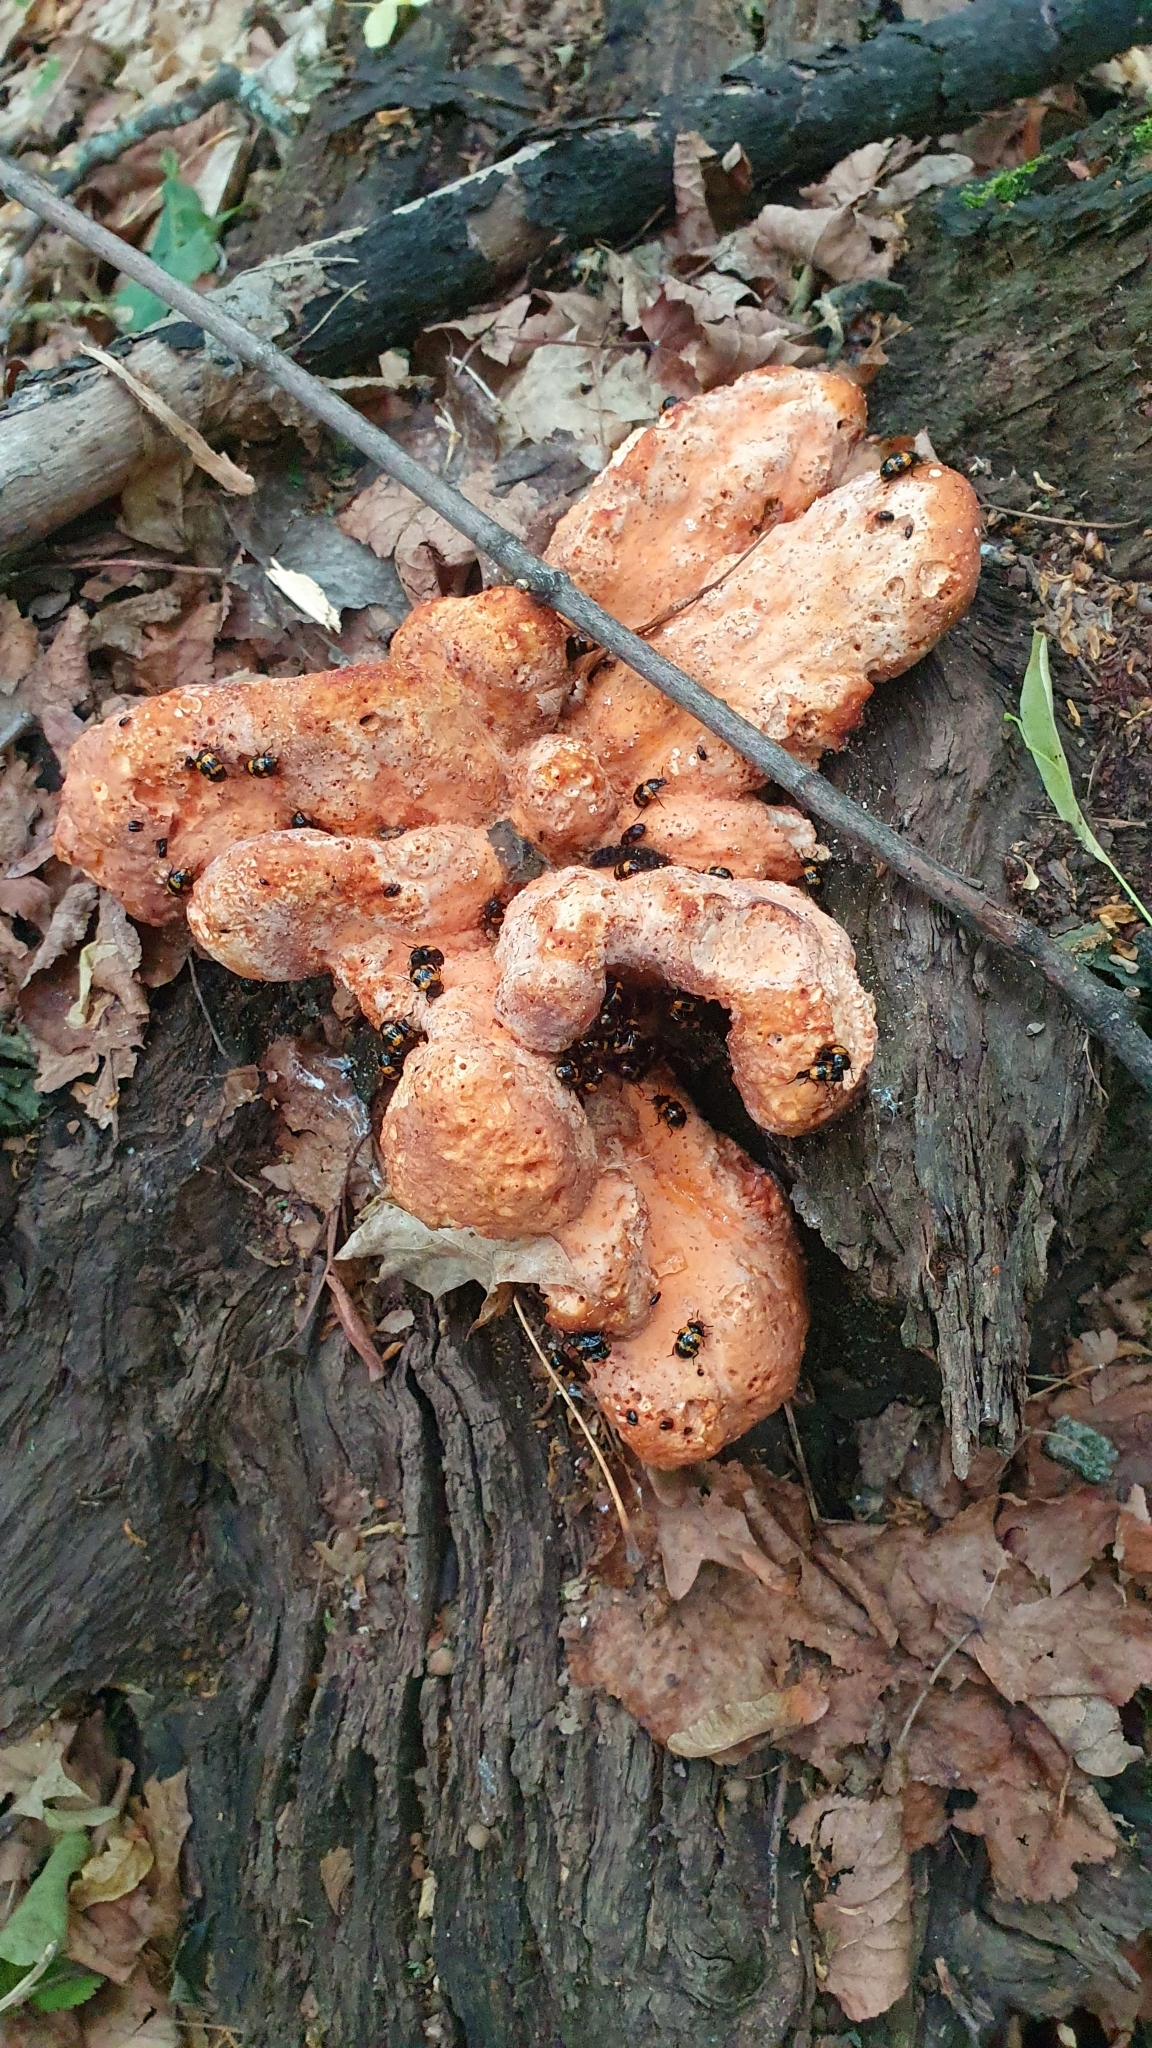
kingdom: Fungi
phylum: Basidiomycota
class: Agaricomycetes
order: Polyporales
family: Laetiporaceae
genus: Laetiporus
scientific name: Laetiporus sulphureus
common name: Chicken of the woods
